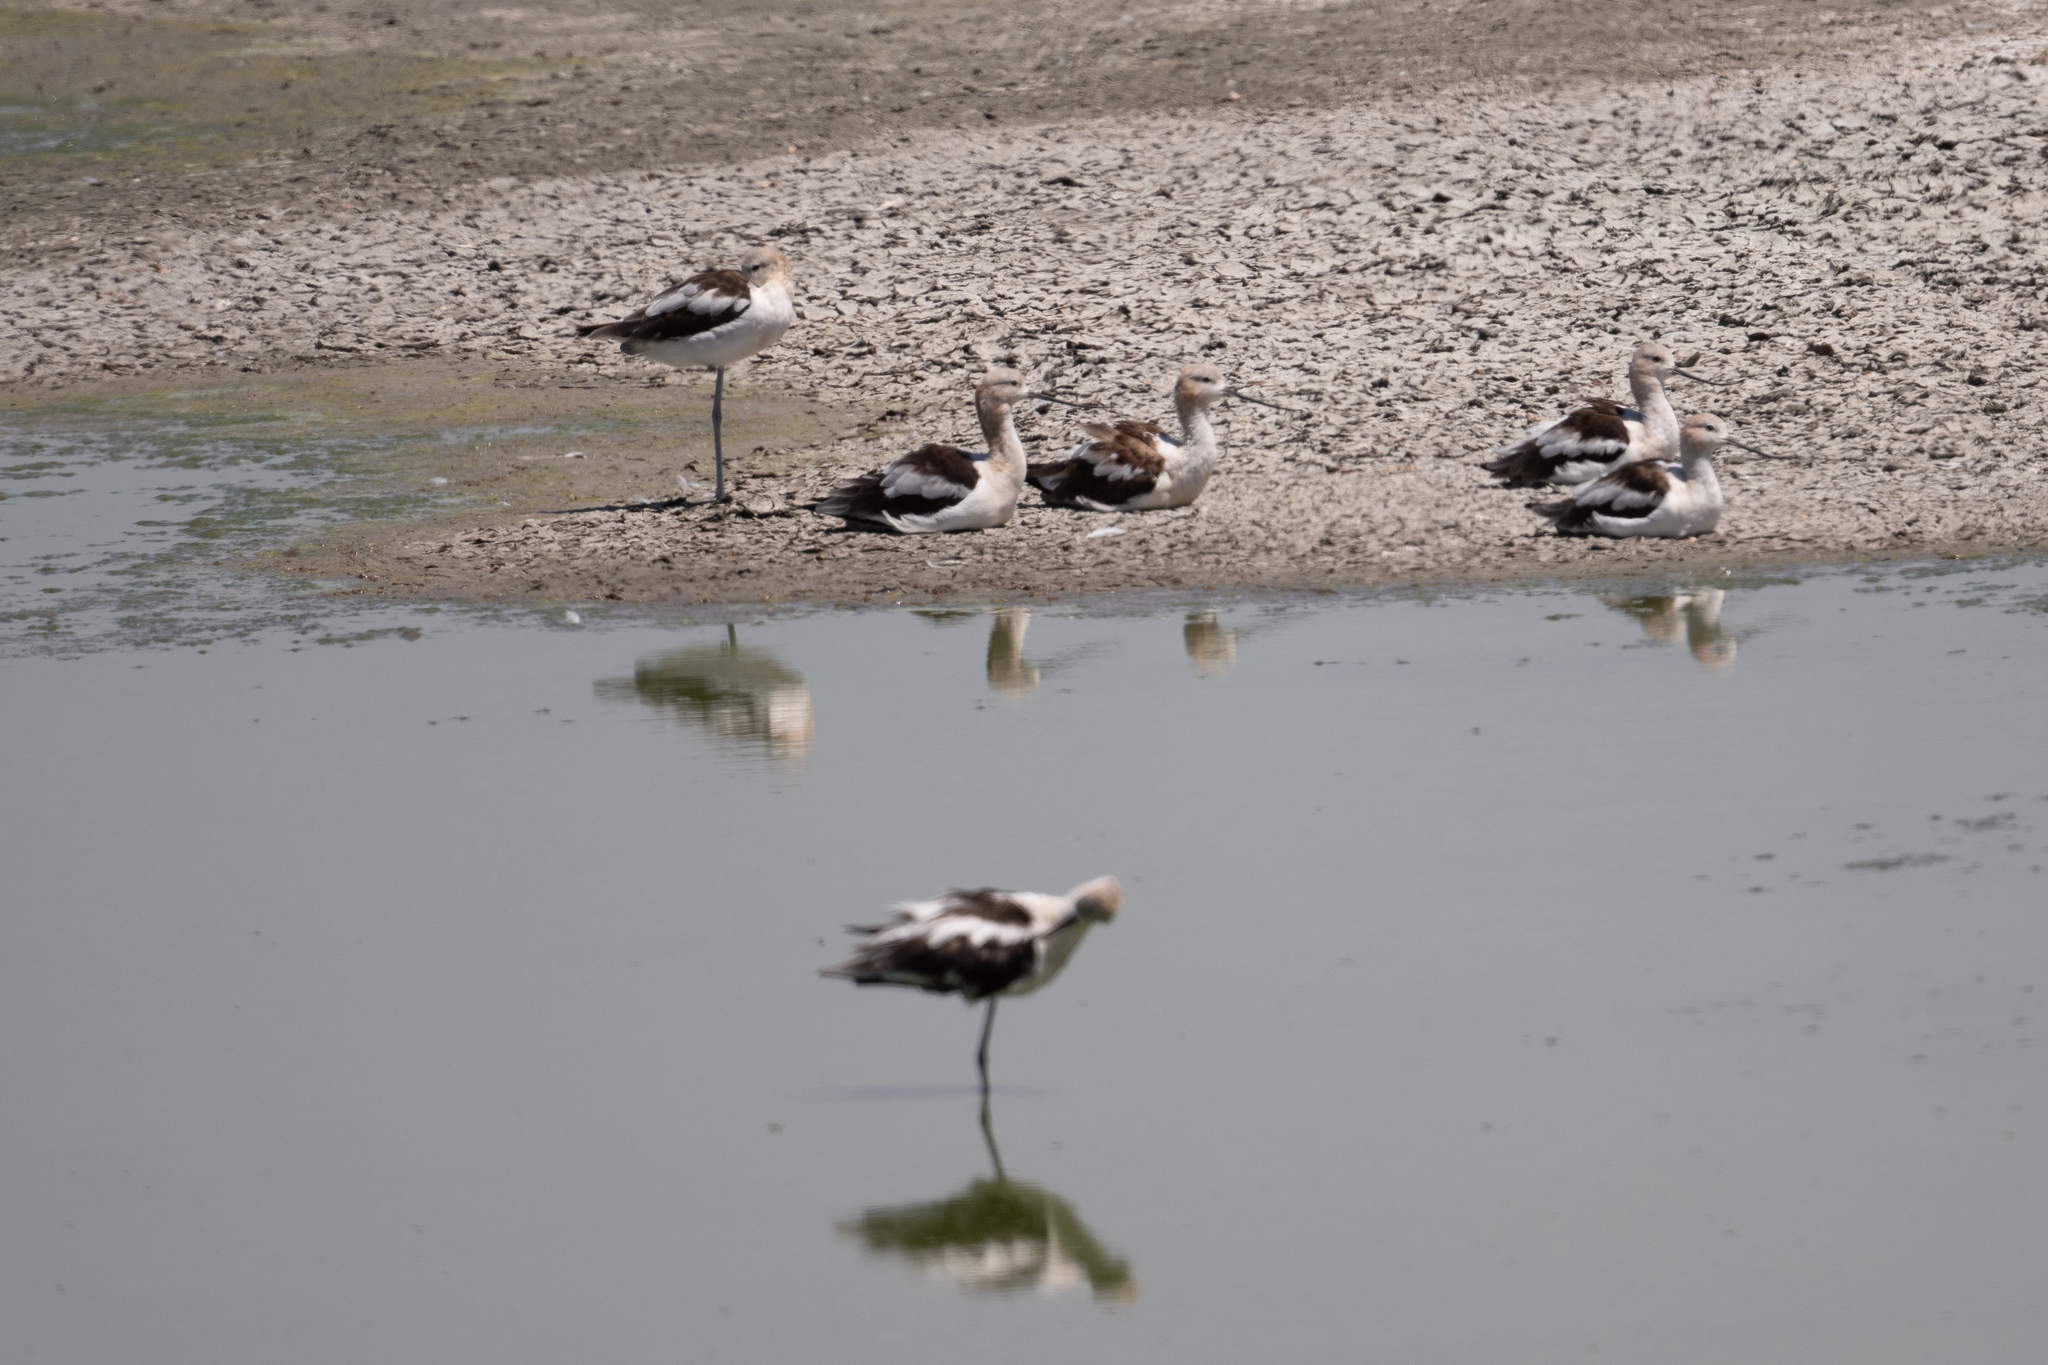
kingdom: Animalia
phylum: Chordata
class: Aves
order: Charadriiformes
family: Recurvirostridae
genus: Recurvirostra
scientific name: Recurvirostra americana
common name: American avocet
